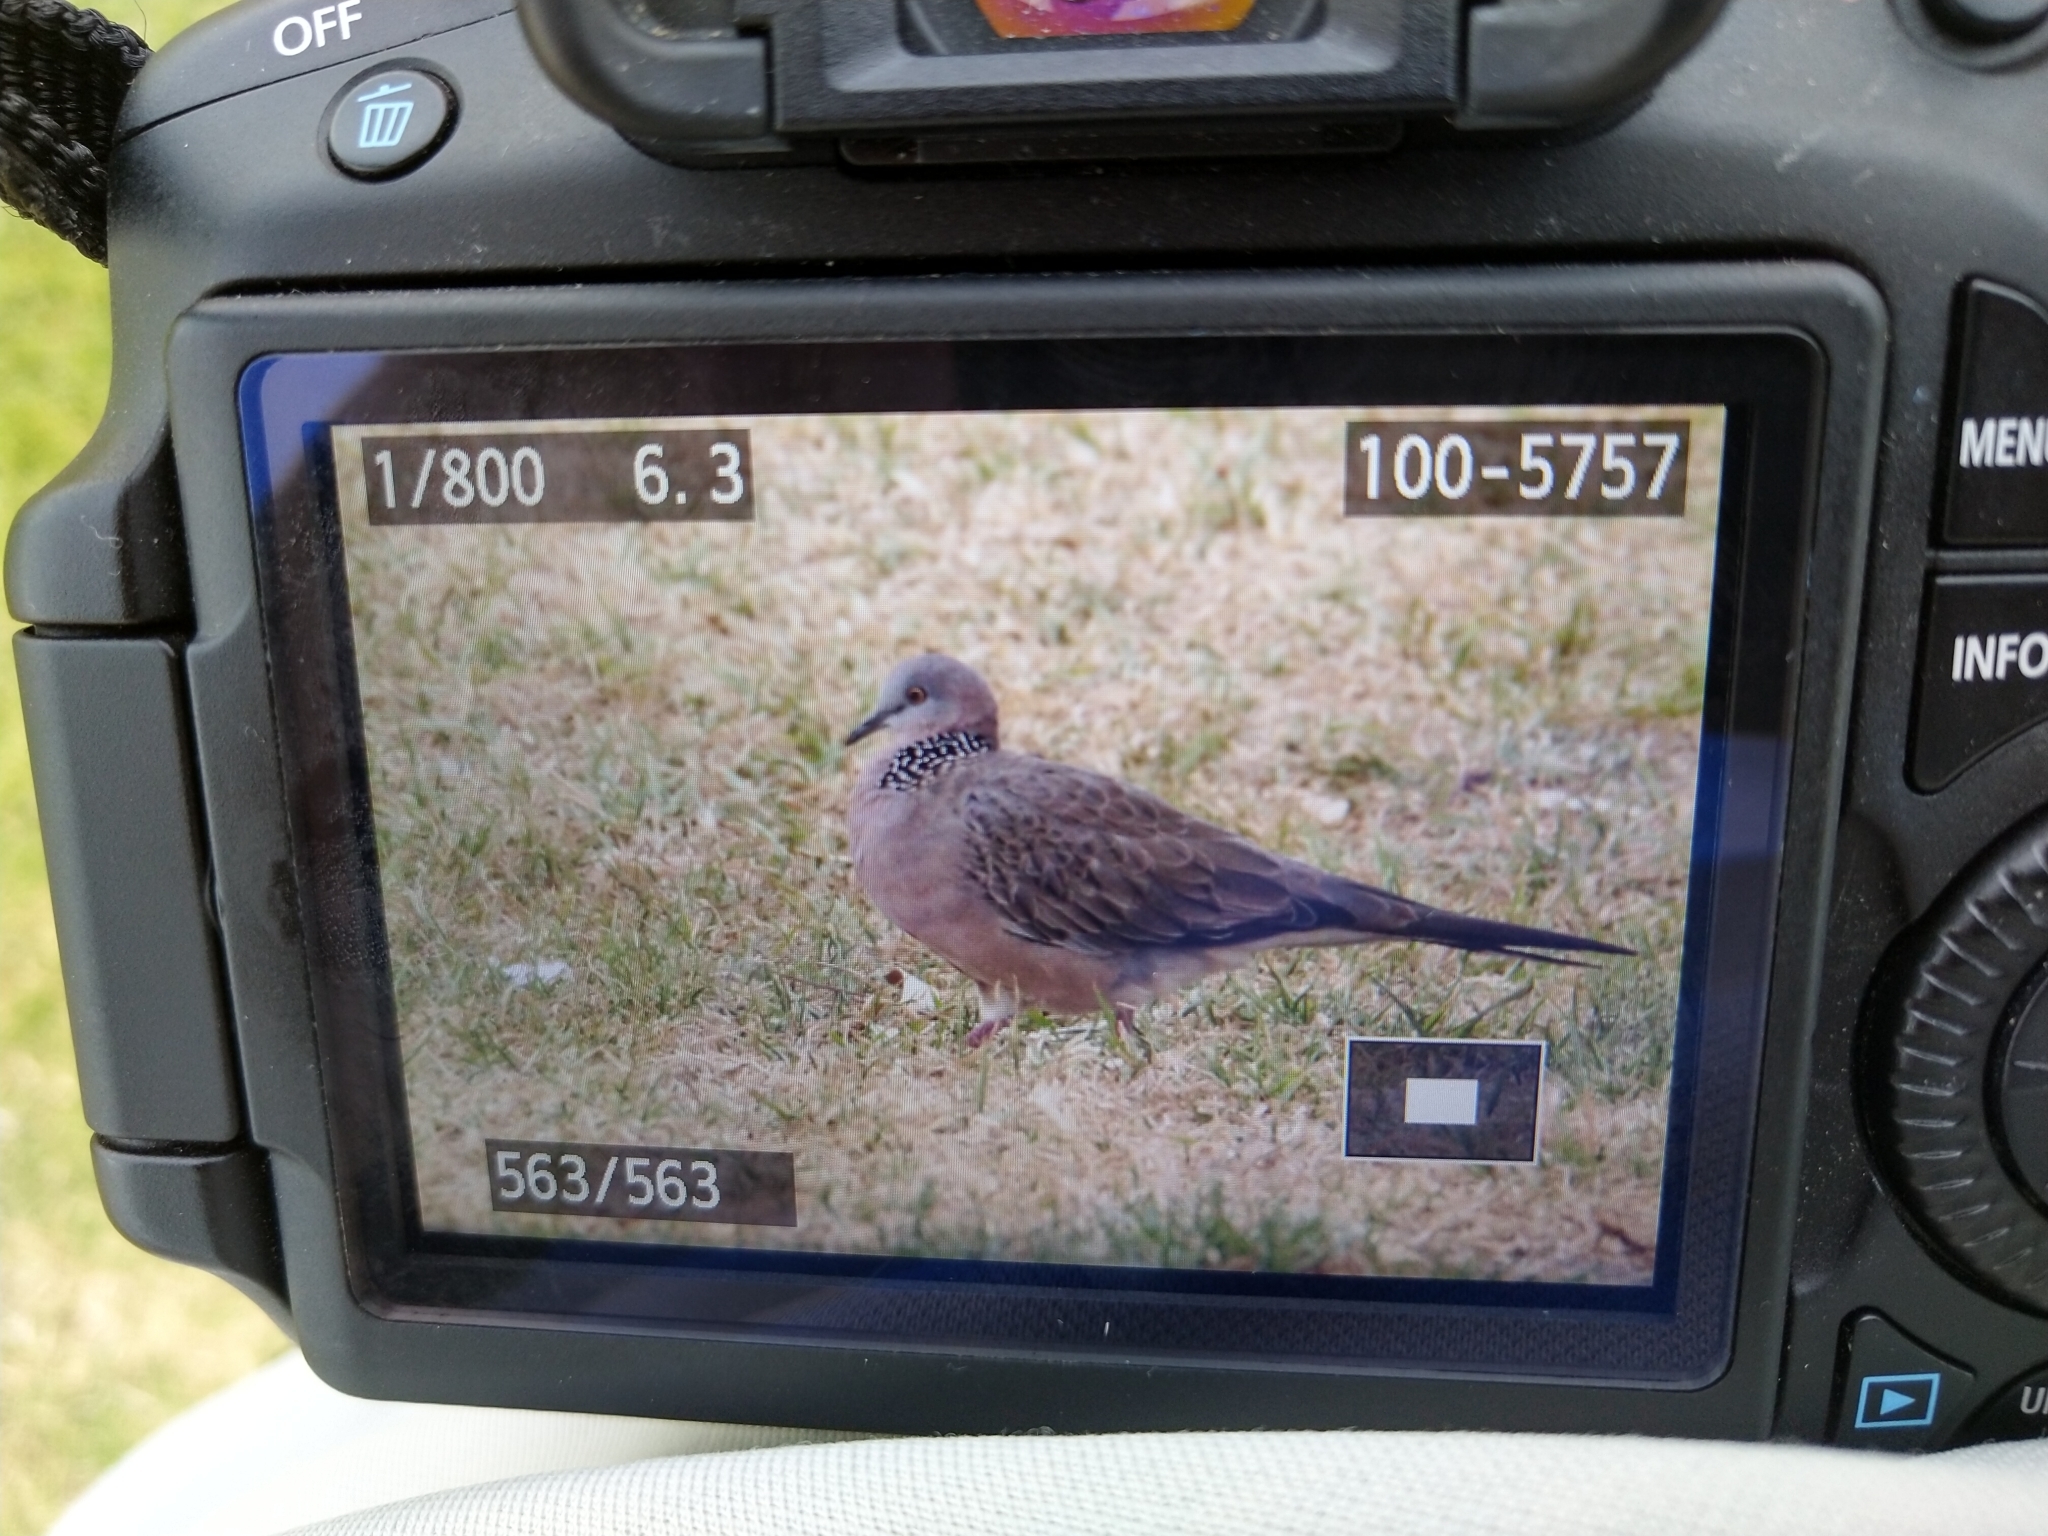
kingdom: Animalia
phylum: Chordata
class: Aves
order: Columbiformes
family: Columbidae
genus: Spilopelia
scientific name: Spilopelia chinensis
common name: Spotted dove
